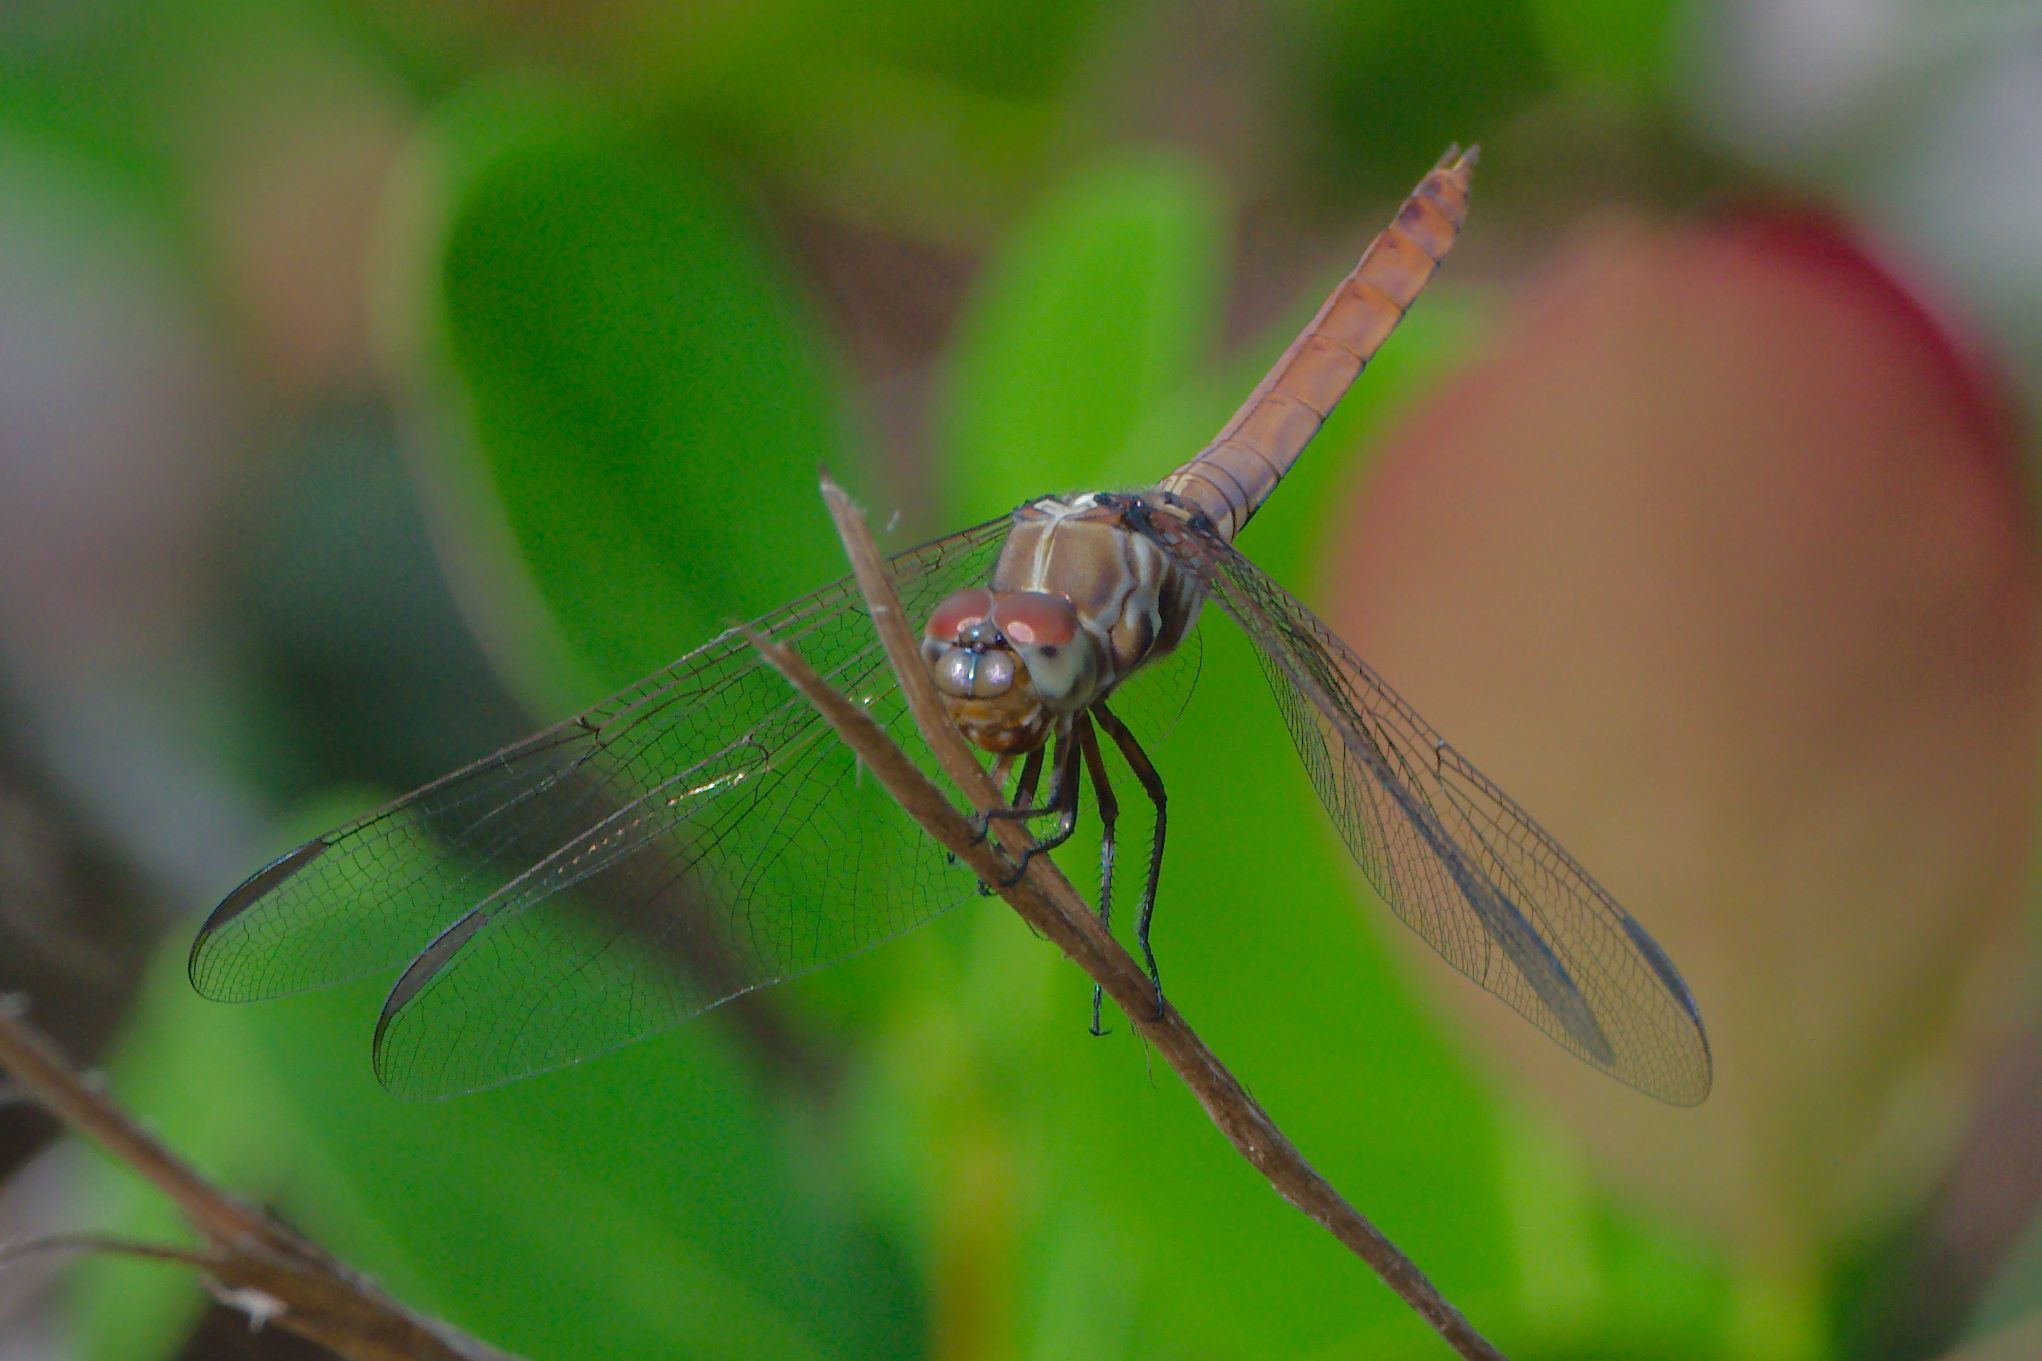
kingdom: Animalia
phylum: Arthropoda
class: Insecta
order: Odonata
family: Libellulidae
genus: Orthemis
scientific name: Orthemis ferruginea
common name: Roseate skimmer
